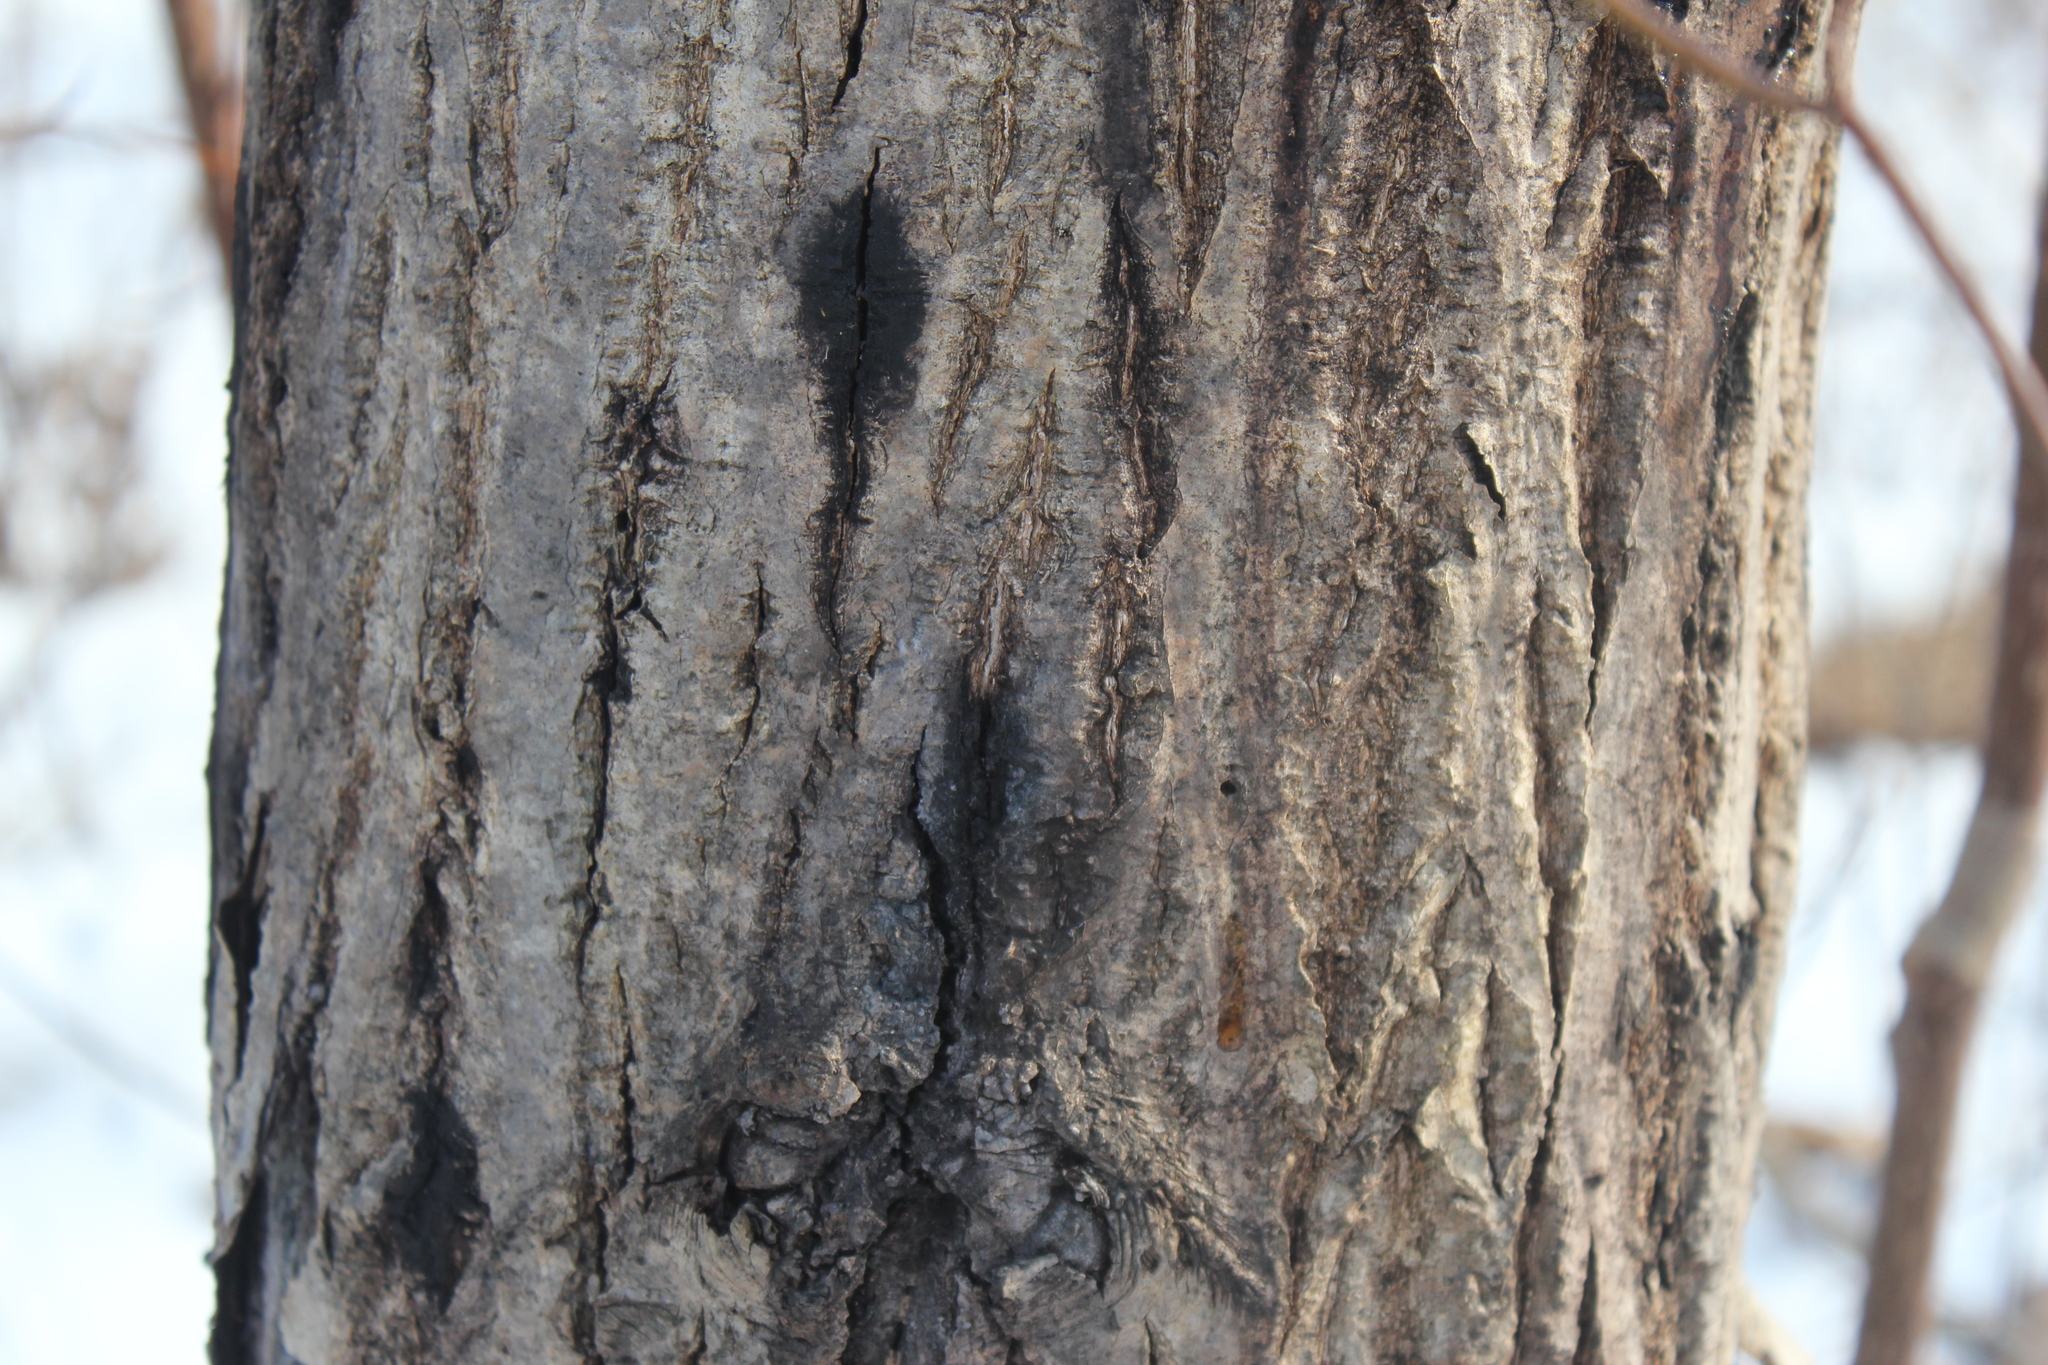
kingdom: Fungi
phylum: Ascomycota
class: Sordariomycetes
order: Diaporthales
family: Gnomoniaceae
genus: Ophiognomonia
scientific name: Ophiognomonia clavigignenti-juglandacearum
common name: Butternut canker fungus
